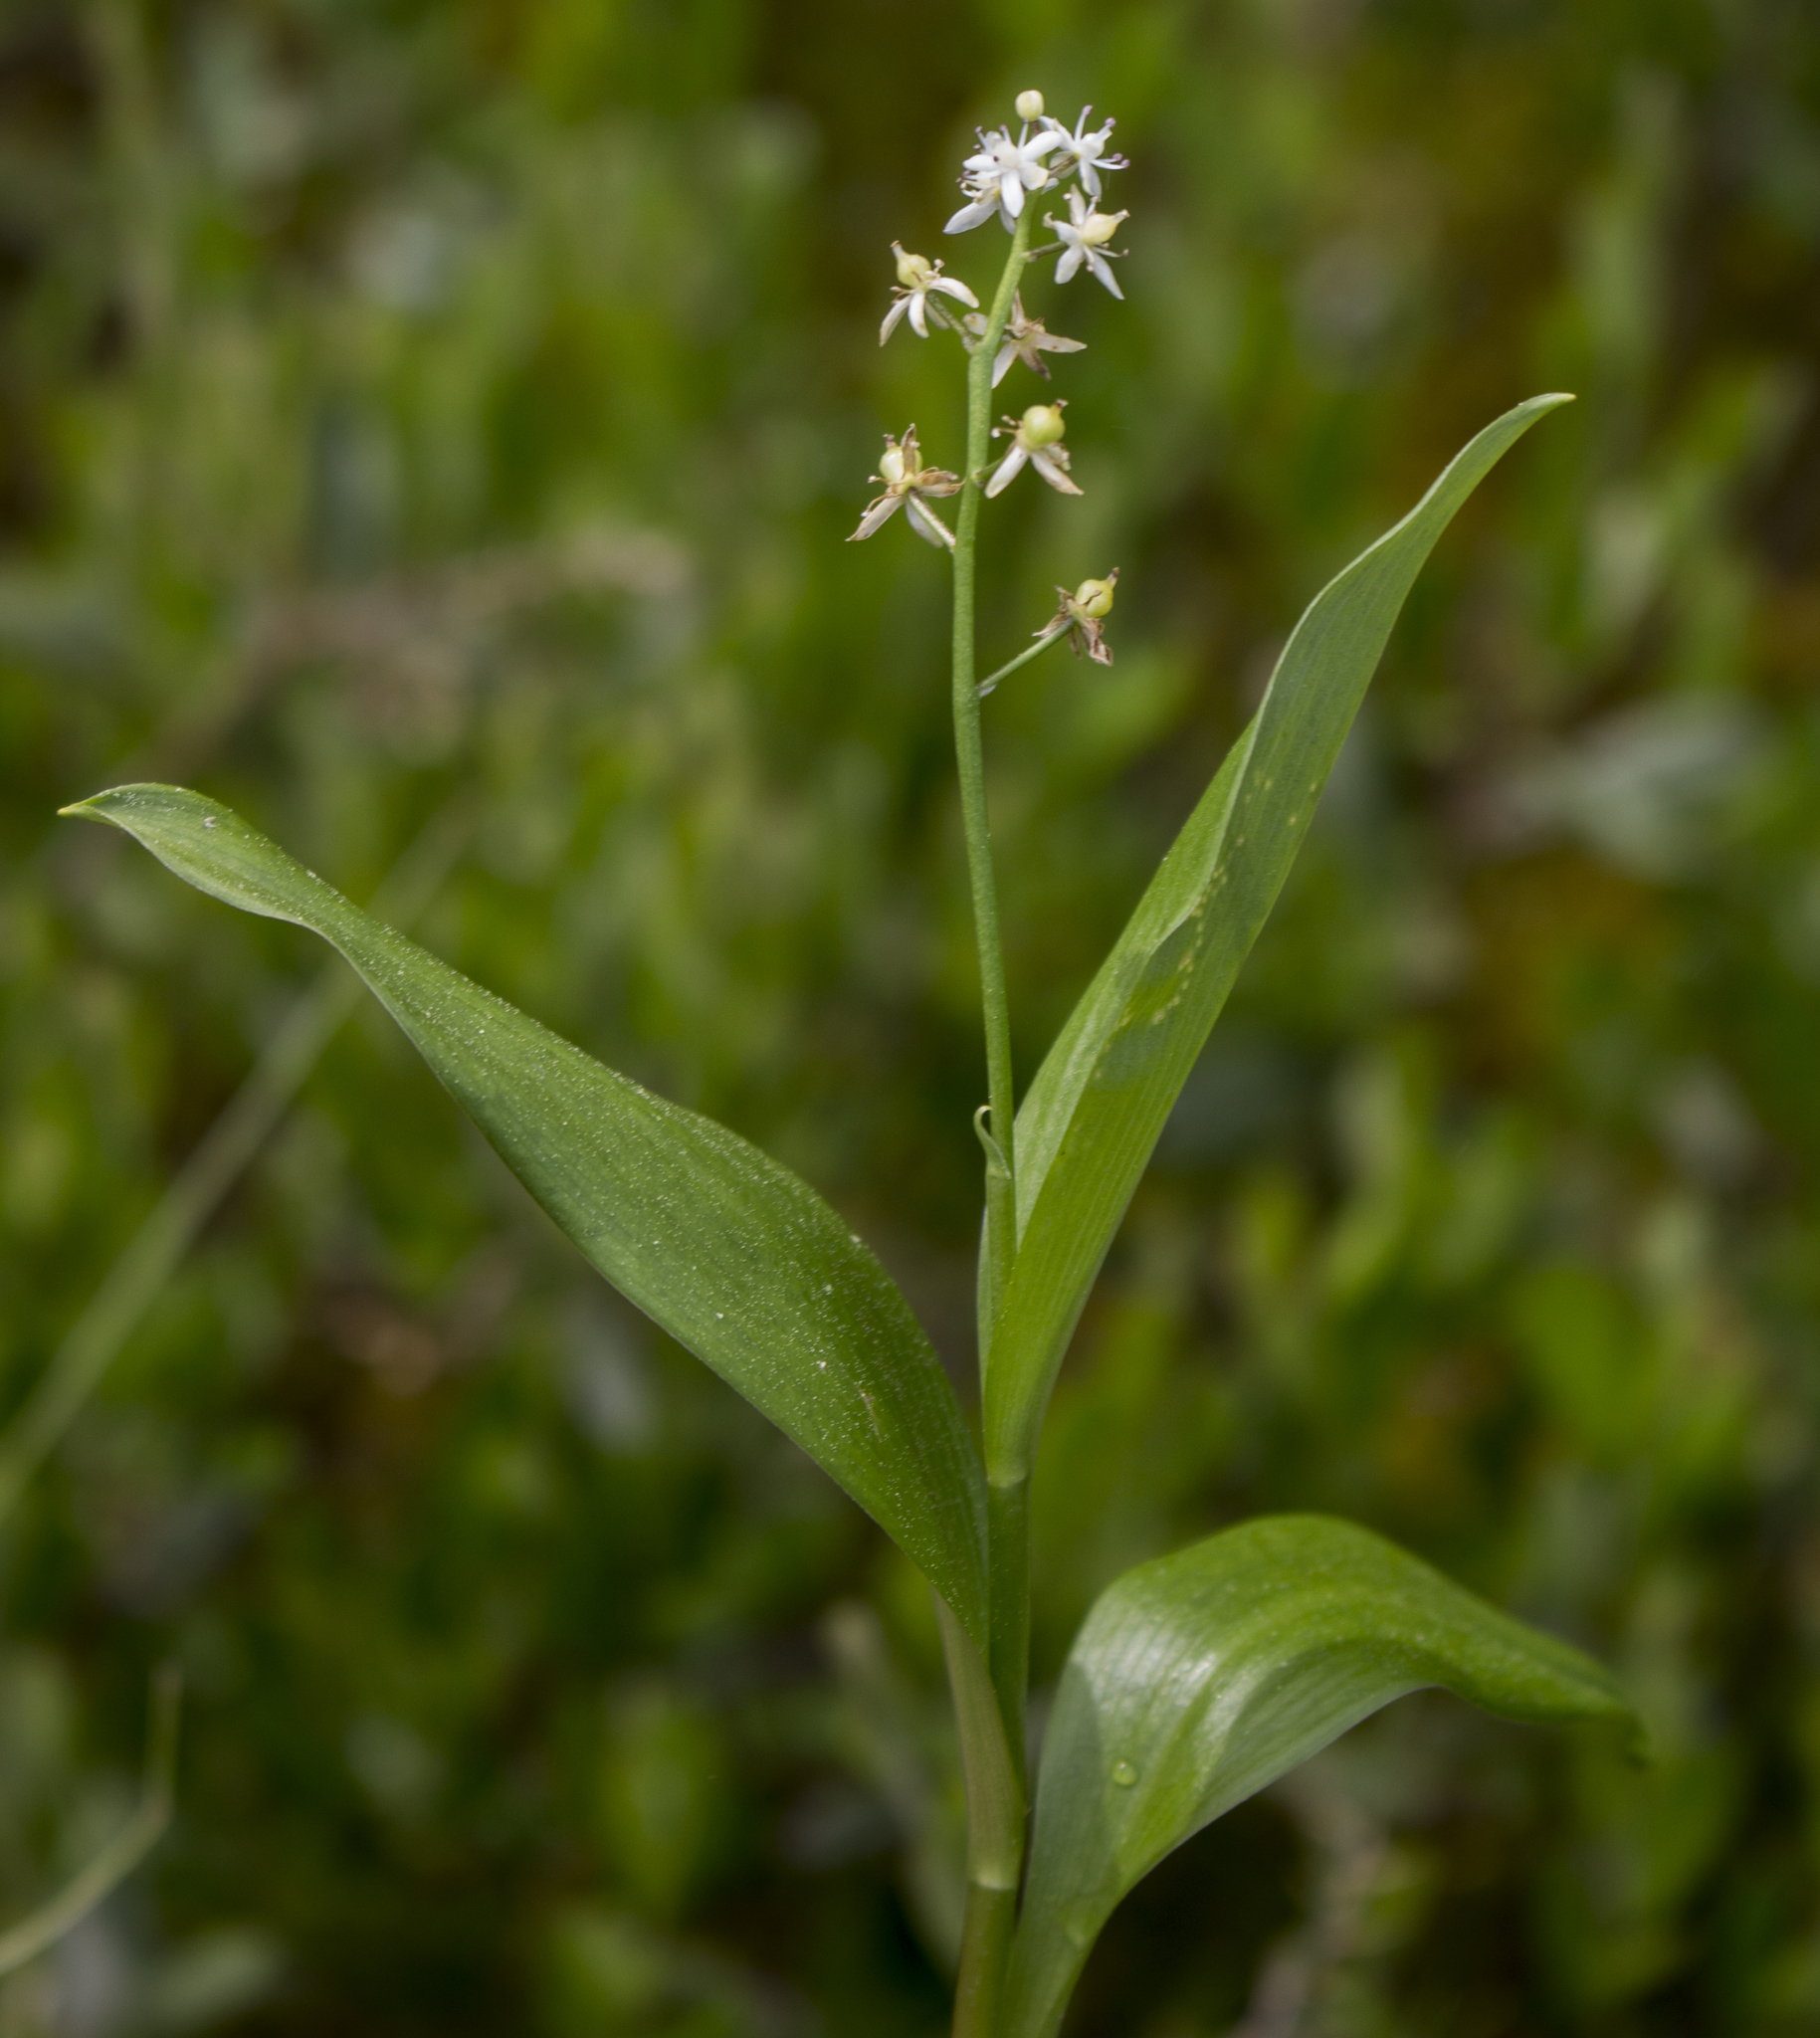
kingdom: Plantae
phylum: Tracheophyta
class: Liliopsida
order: Asparagales
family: Asparagaceae
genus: Maianthemum
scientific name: Maianthemum trifolium
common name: Swamp false solomon's seal
